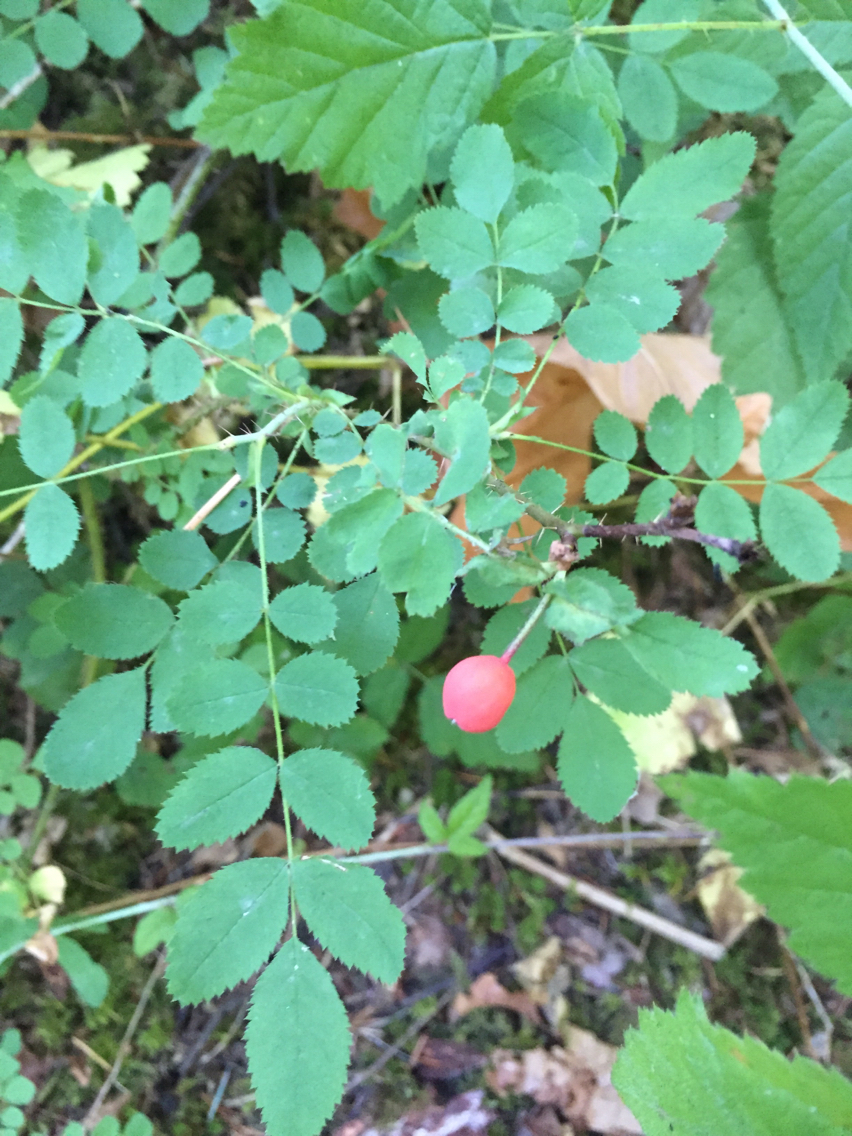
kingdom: Plantae
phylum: Tracheophyta
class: Magnoliopsida
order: Rosales
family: Rosaceae
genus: Rosa
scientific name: Rosa gymnocarpa
